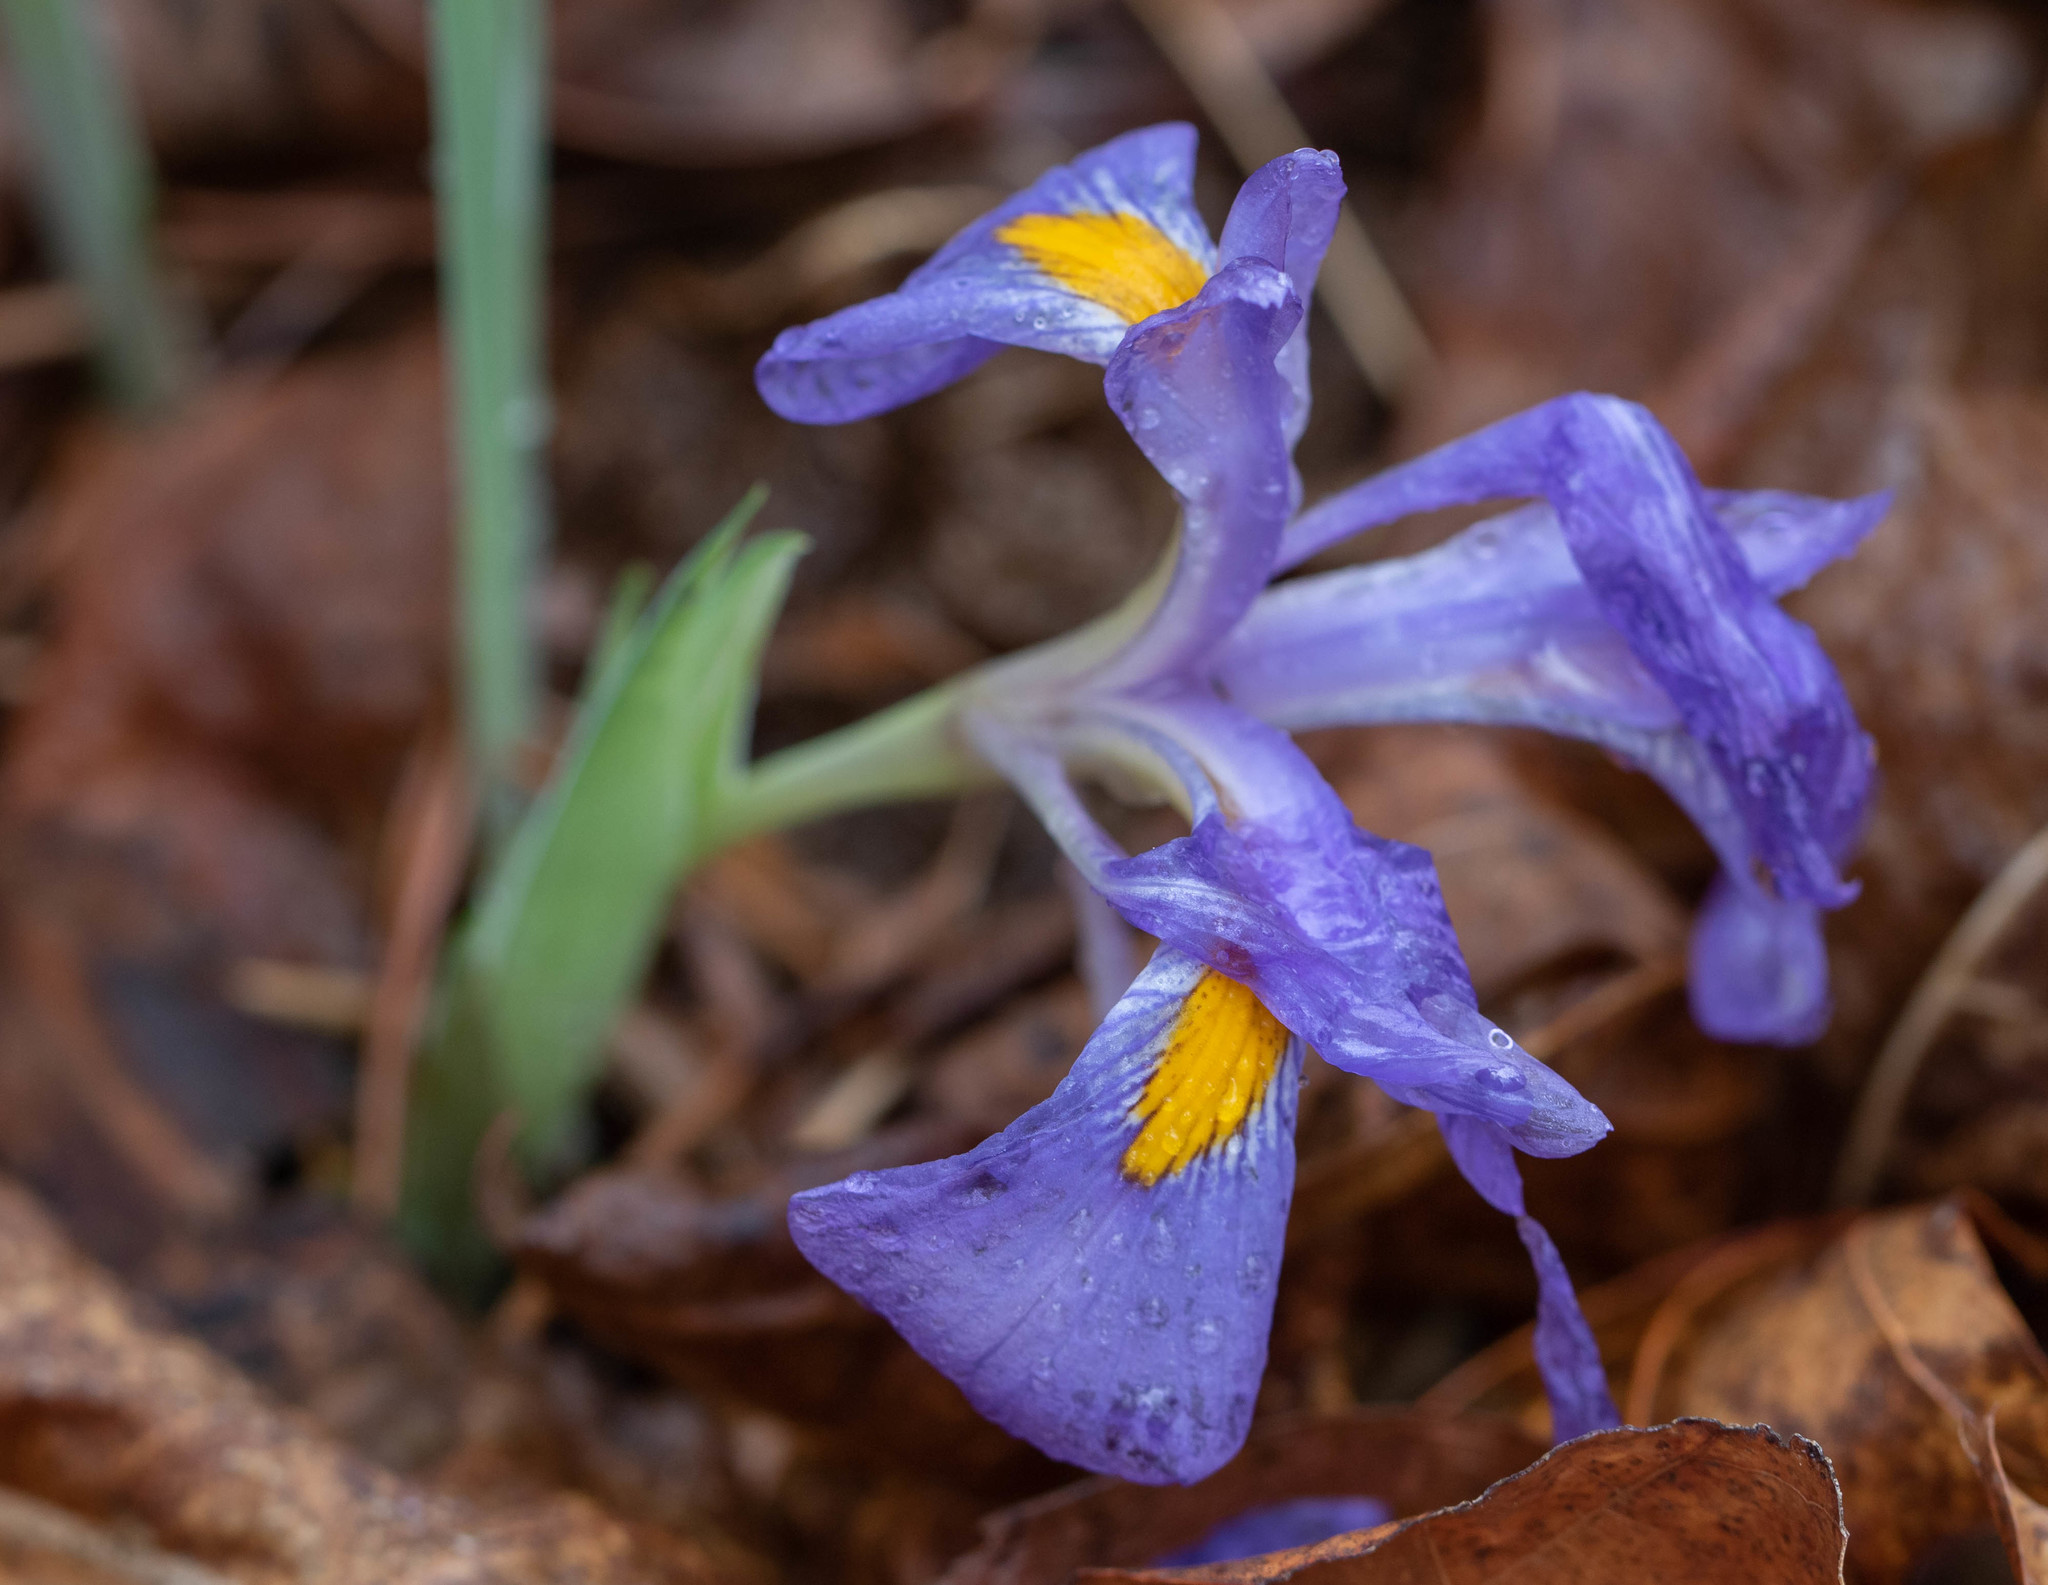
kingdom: Plantae
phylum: Tracheophyta
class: Liliopsida
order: Asparagales
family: Iridaceae
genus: Iris
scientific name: Iris verna
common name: Dwarf iris
